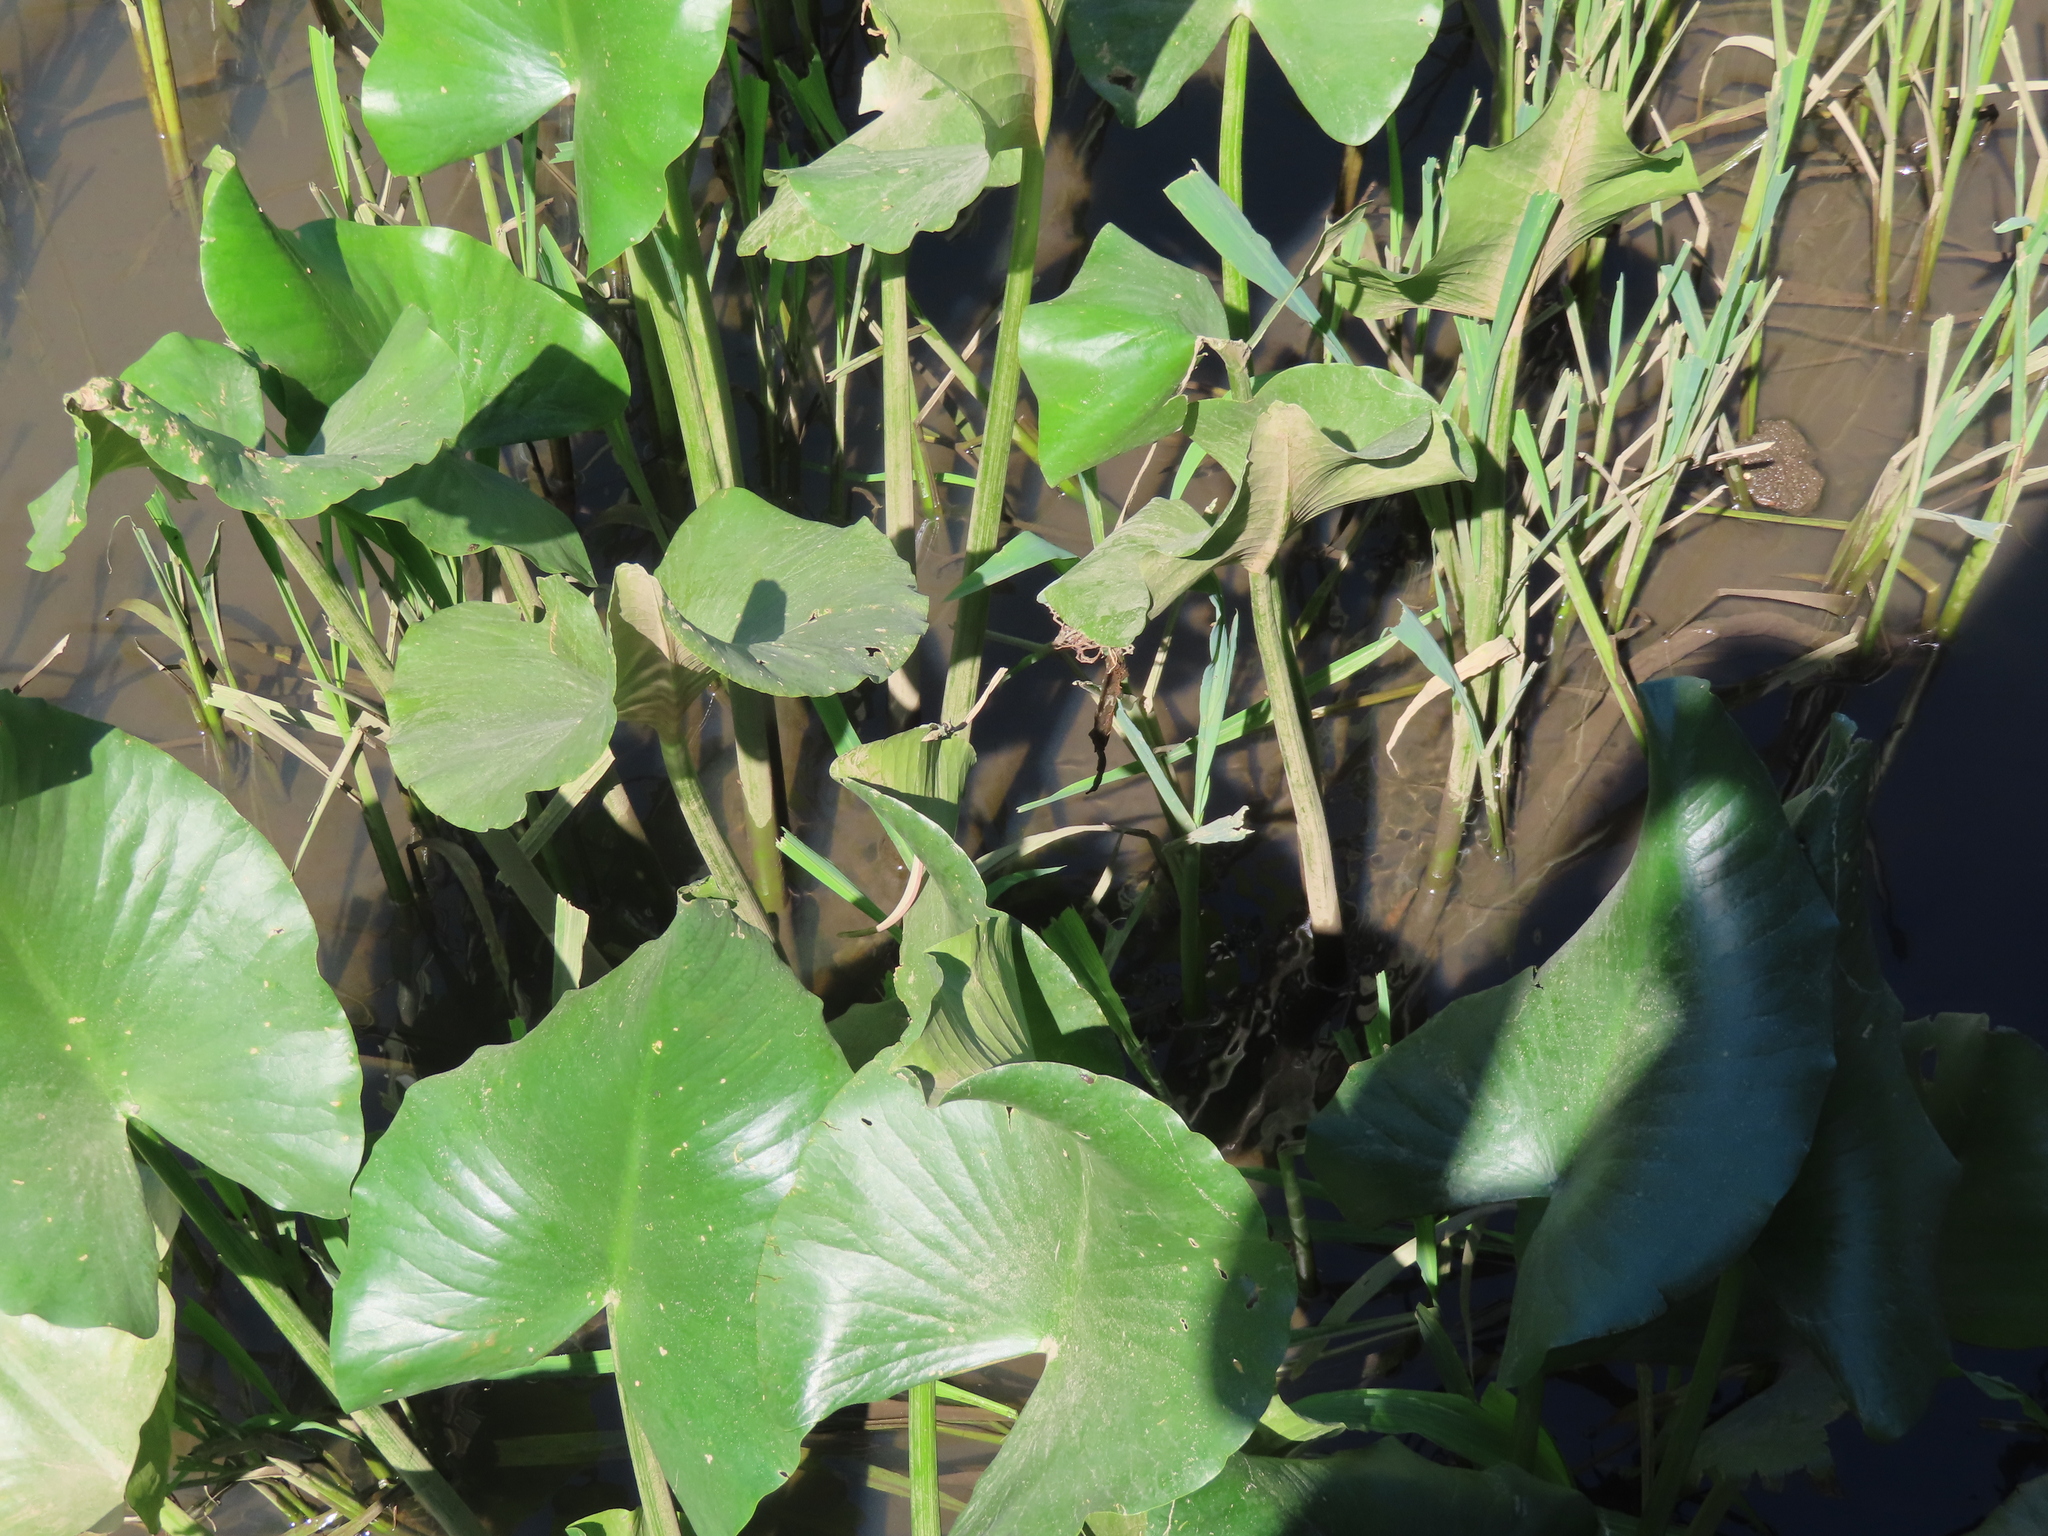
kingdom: Plantae
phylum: Tracheophyta
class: Magnoliopsida
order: Nymphaeales
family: Nymphaeaceae
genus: Nuphar
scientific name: Nuphar advena
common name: Spatter-dock
